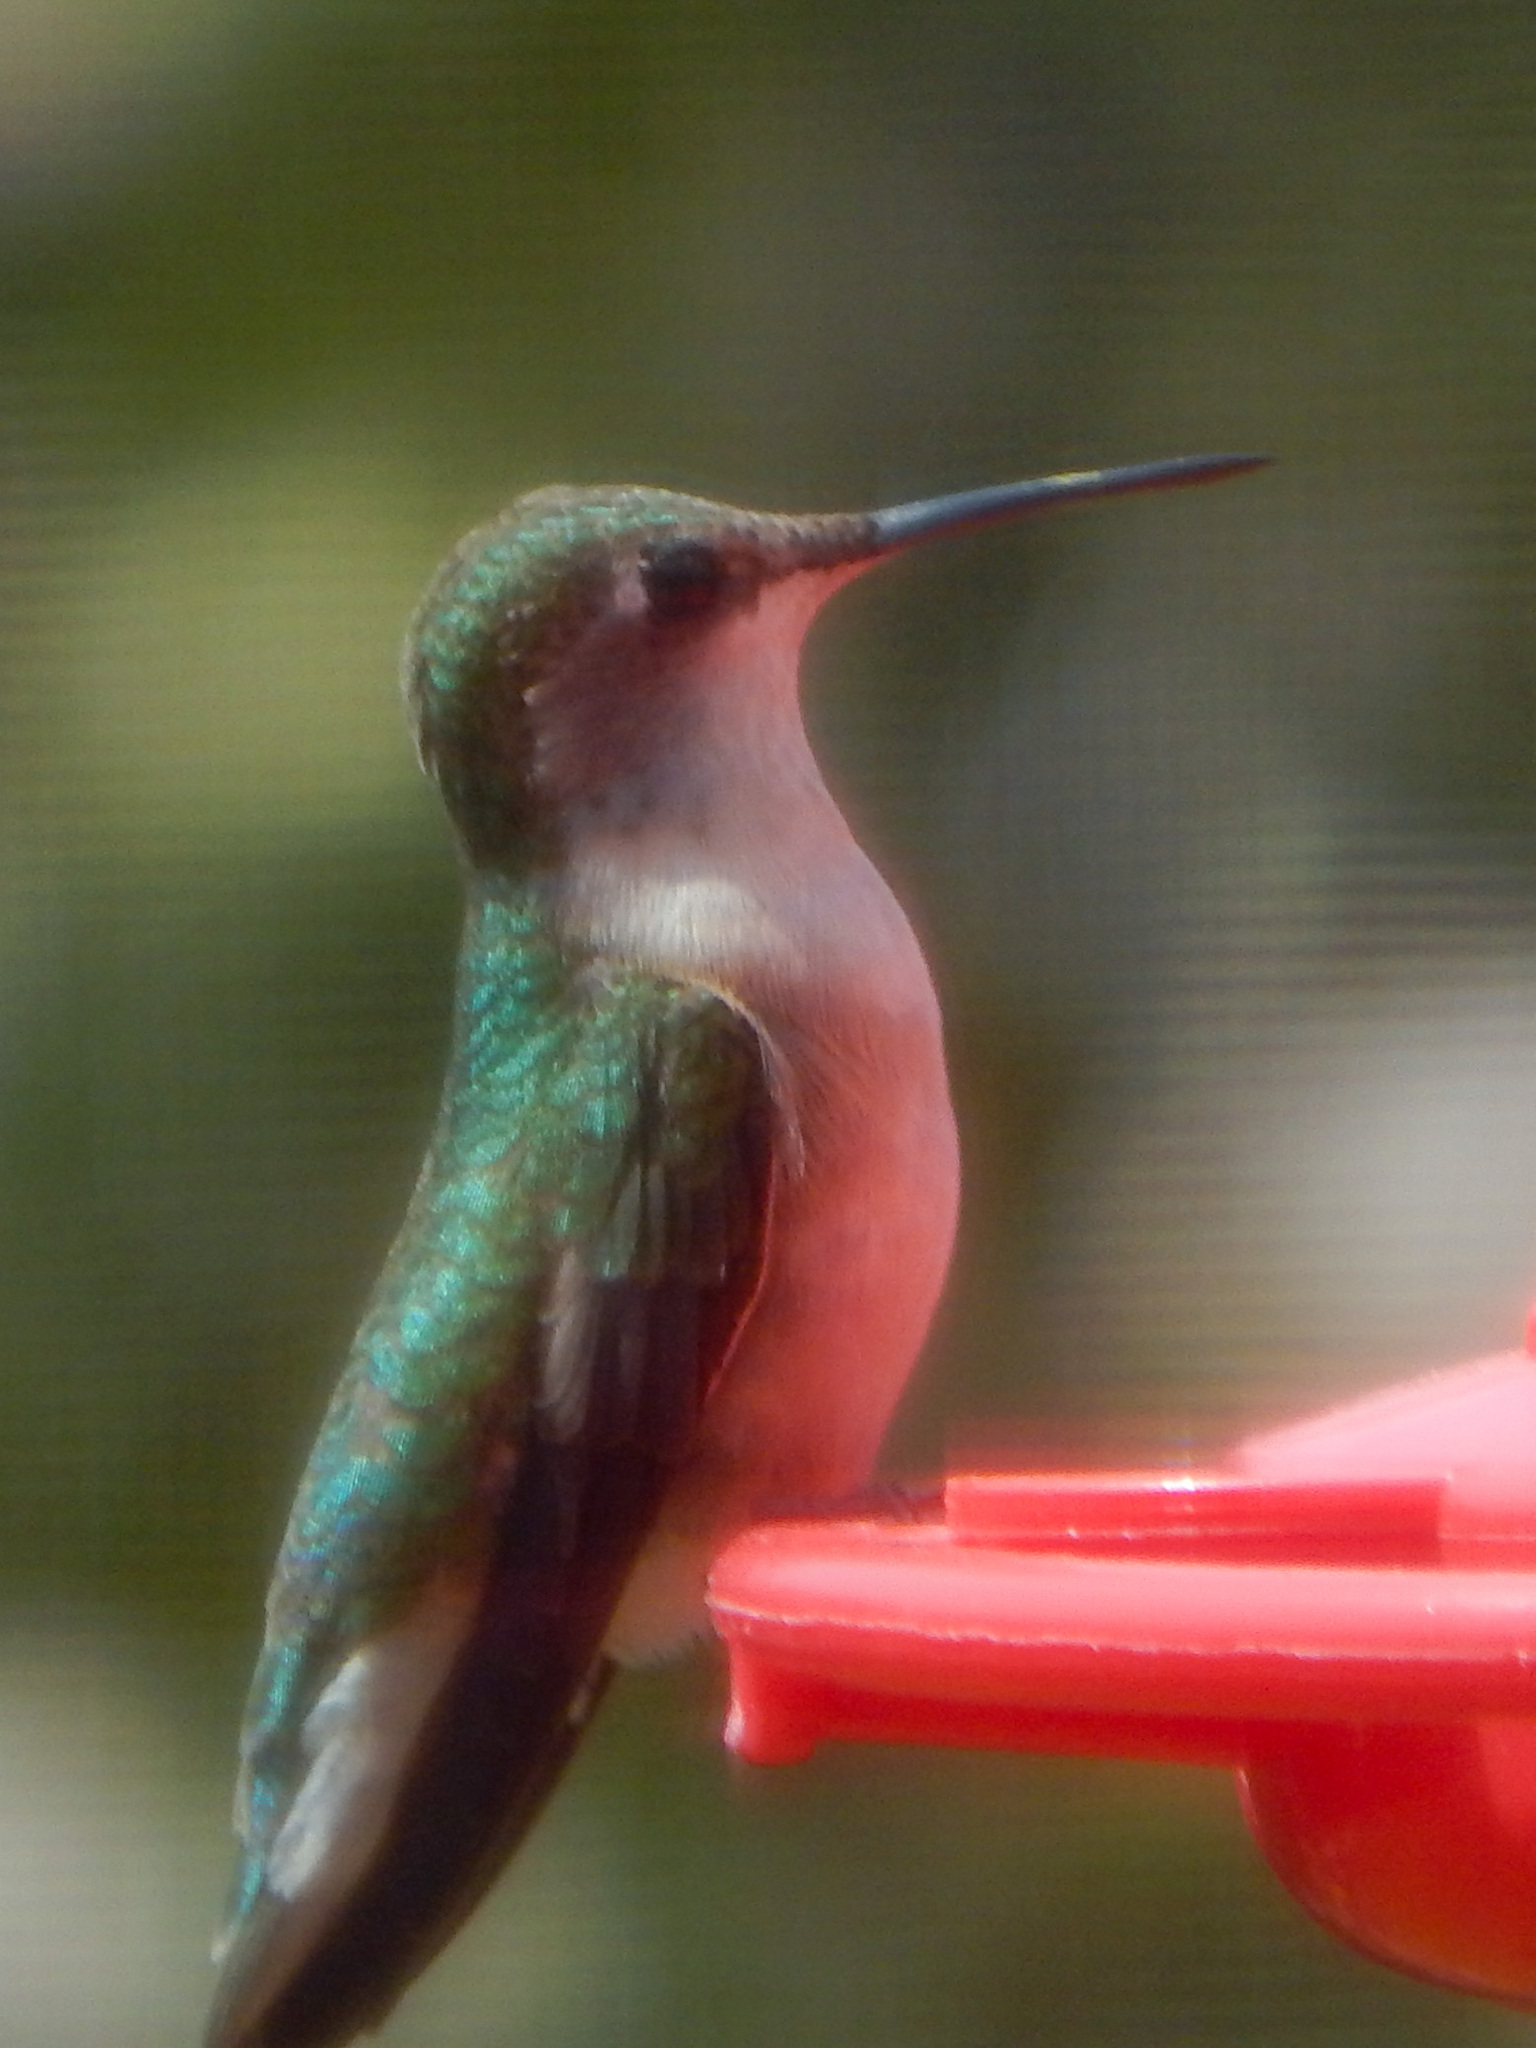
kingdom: Animalia
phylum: Chordata
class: Aves
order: Apodiformes
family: Trochilidae
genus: Archilochus
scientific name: Archilochus colubris
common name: Ruby-throated hummingbird
